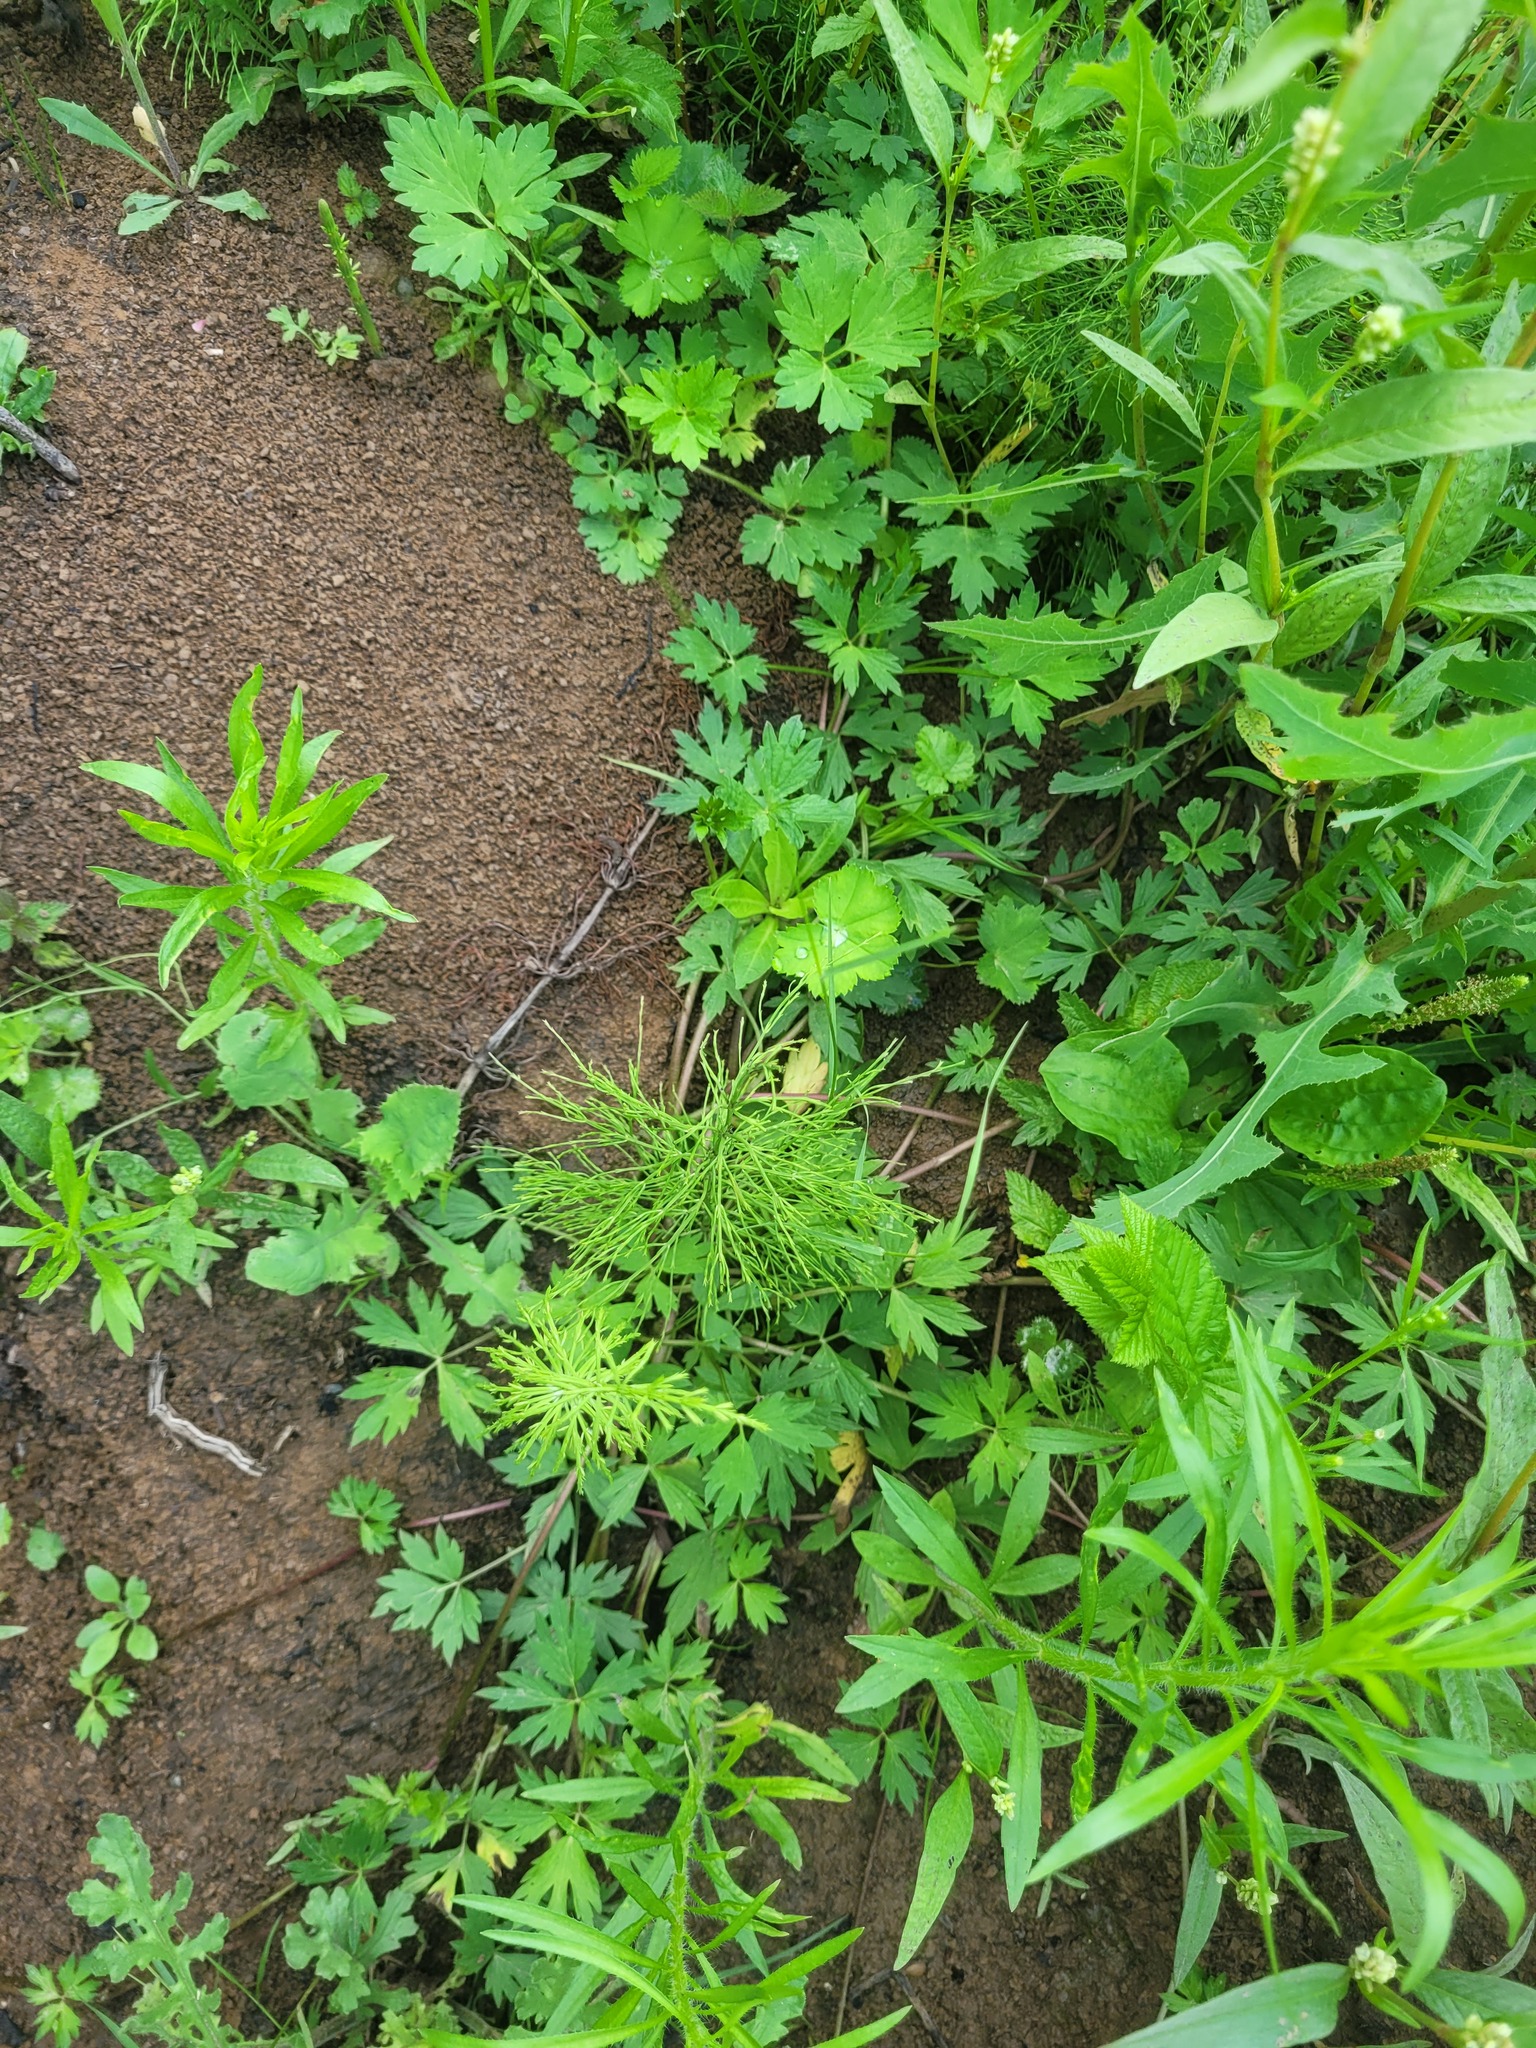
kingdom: Plantae
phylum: Tracheophyta
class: Polypodiopsida
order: Equisetales
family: Equisetaceae
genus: Equisetum
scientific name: Equisetum sylvaticum
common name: Wood horsetail
